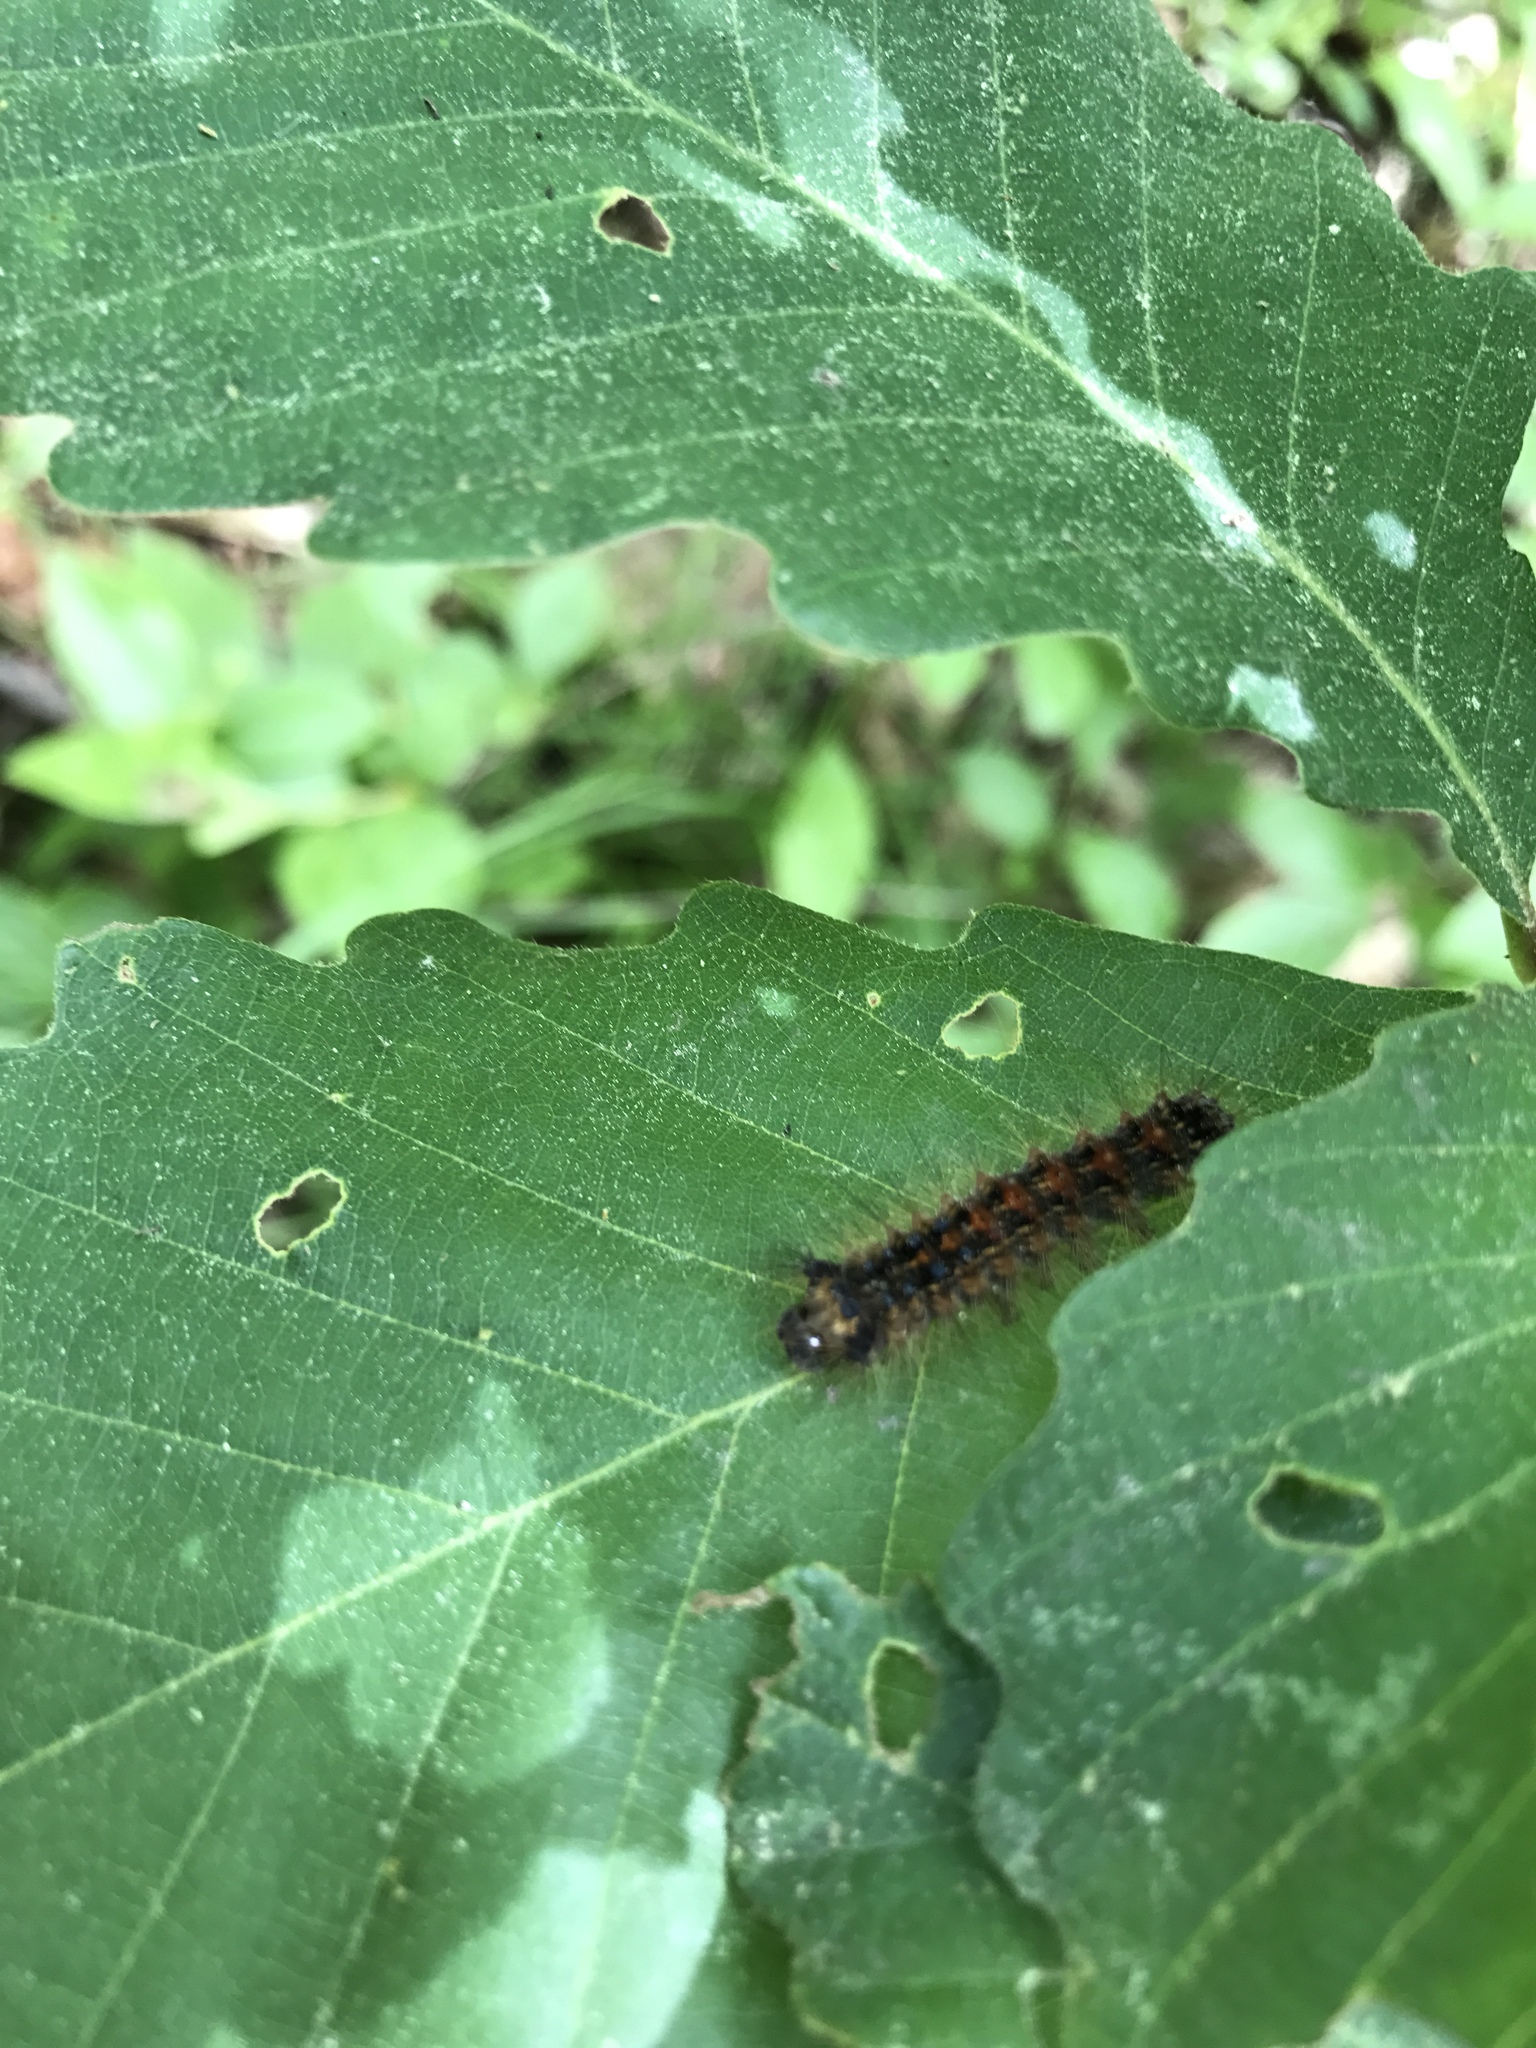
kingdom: Animalia
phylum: Arthropoda
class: Insecta
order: Lepidoptera
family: Erebidae
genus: Lymantria
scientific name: Lymantria dispar
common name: Gypsy moth
